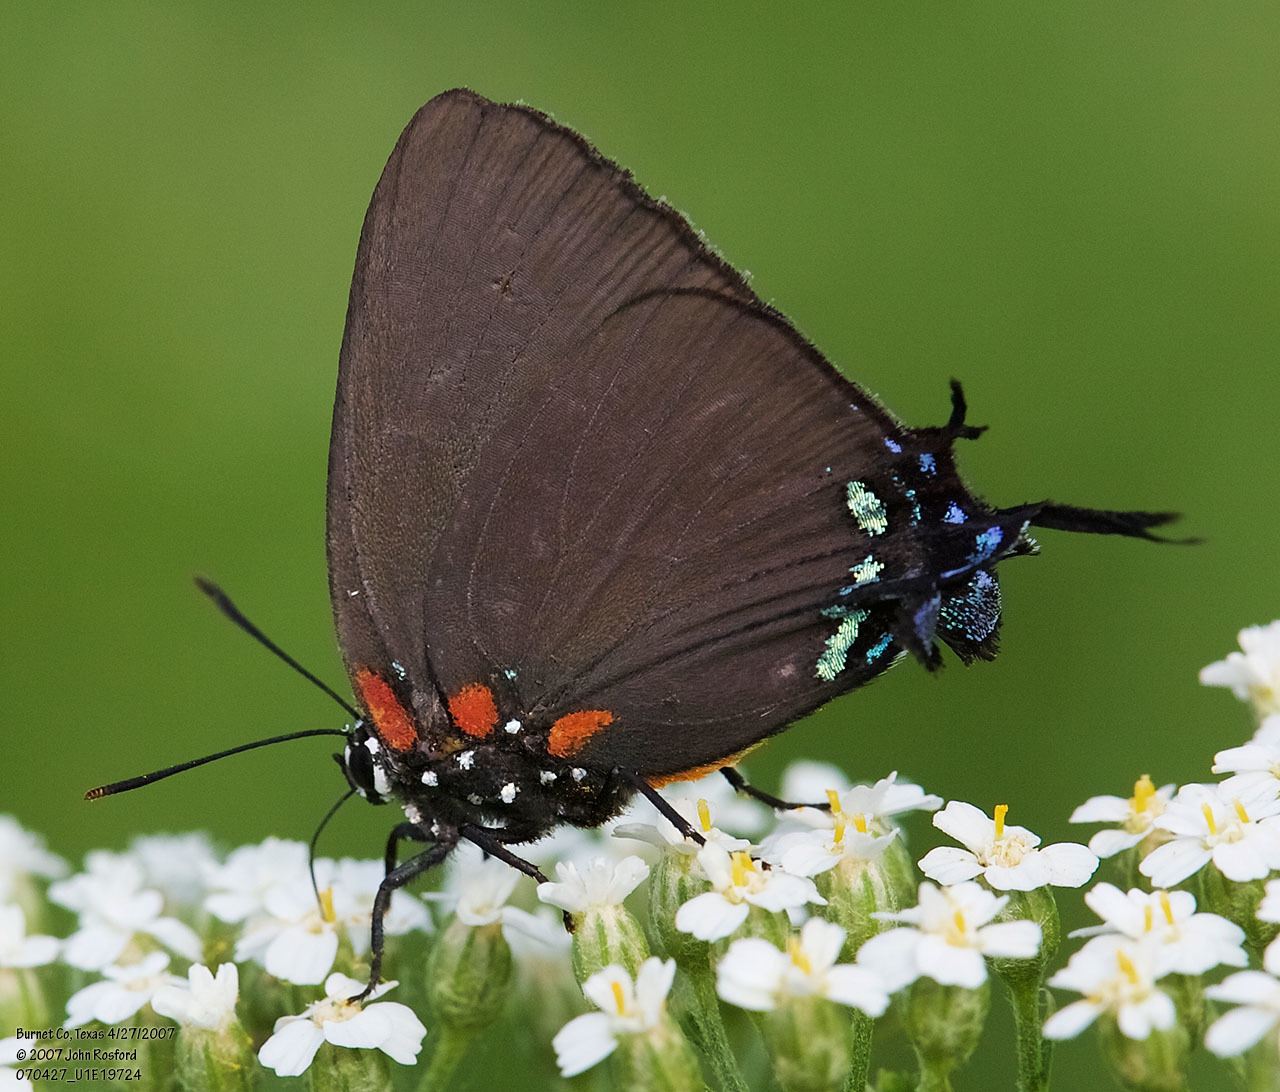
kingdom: Animalia
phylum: Arthropoda
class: Insecta
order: Lepidoptera
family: Lycaenidae
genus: Atlides
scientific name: Atlides halesus
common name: Great purple hairstreak
